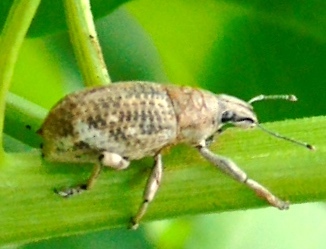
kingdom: Animalia
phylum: Arthropoda
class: Insecta
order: Coleoptera
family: Curculionidae
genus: Epicaerus
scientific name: Epicaerus
